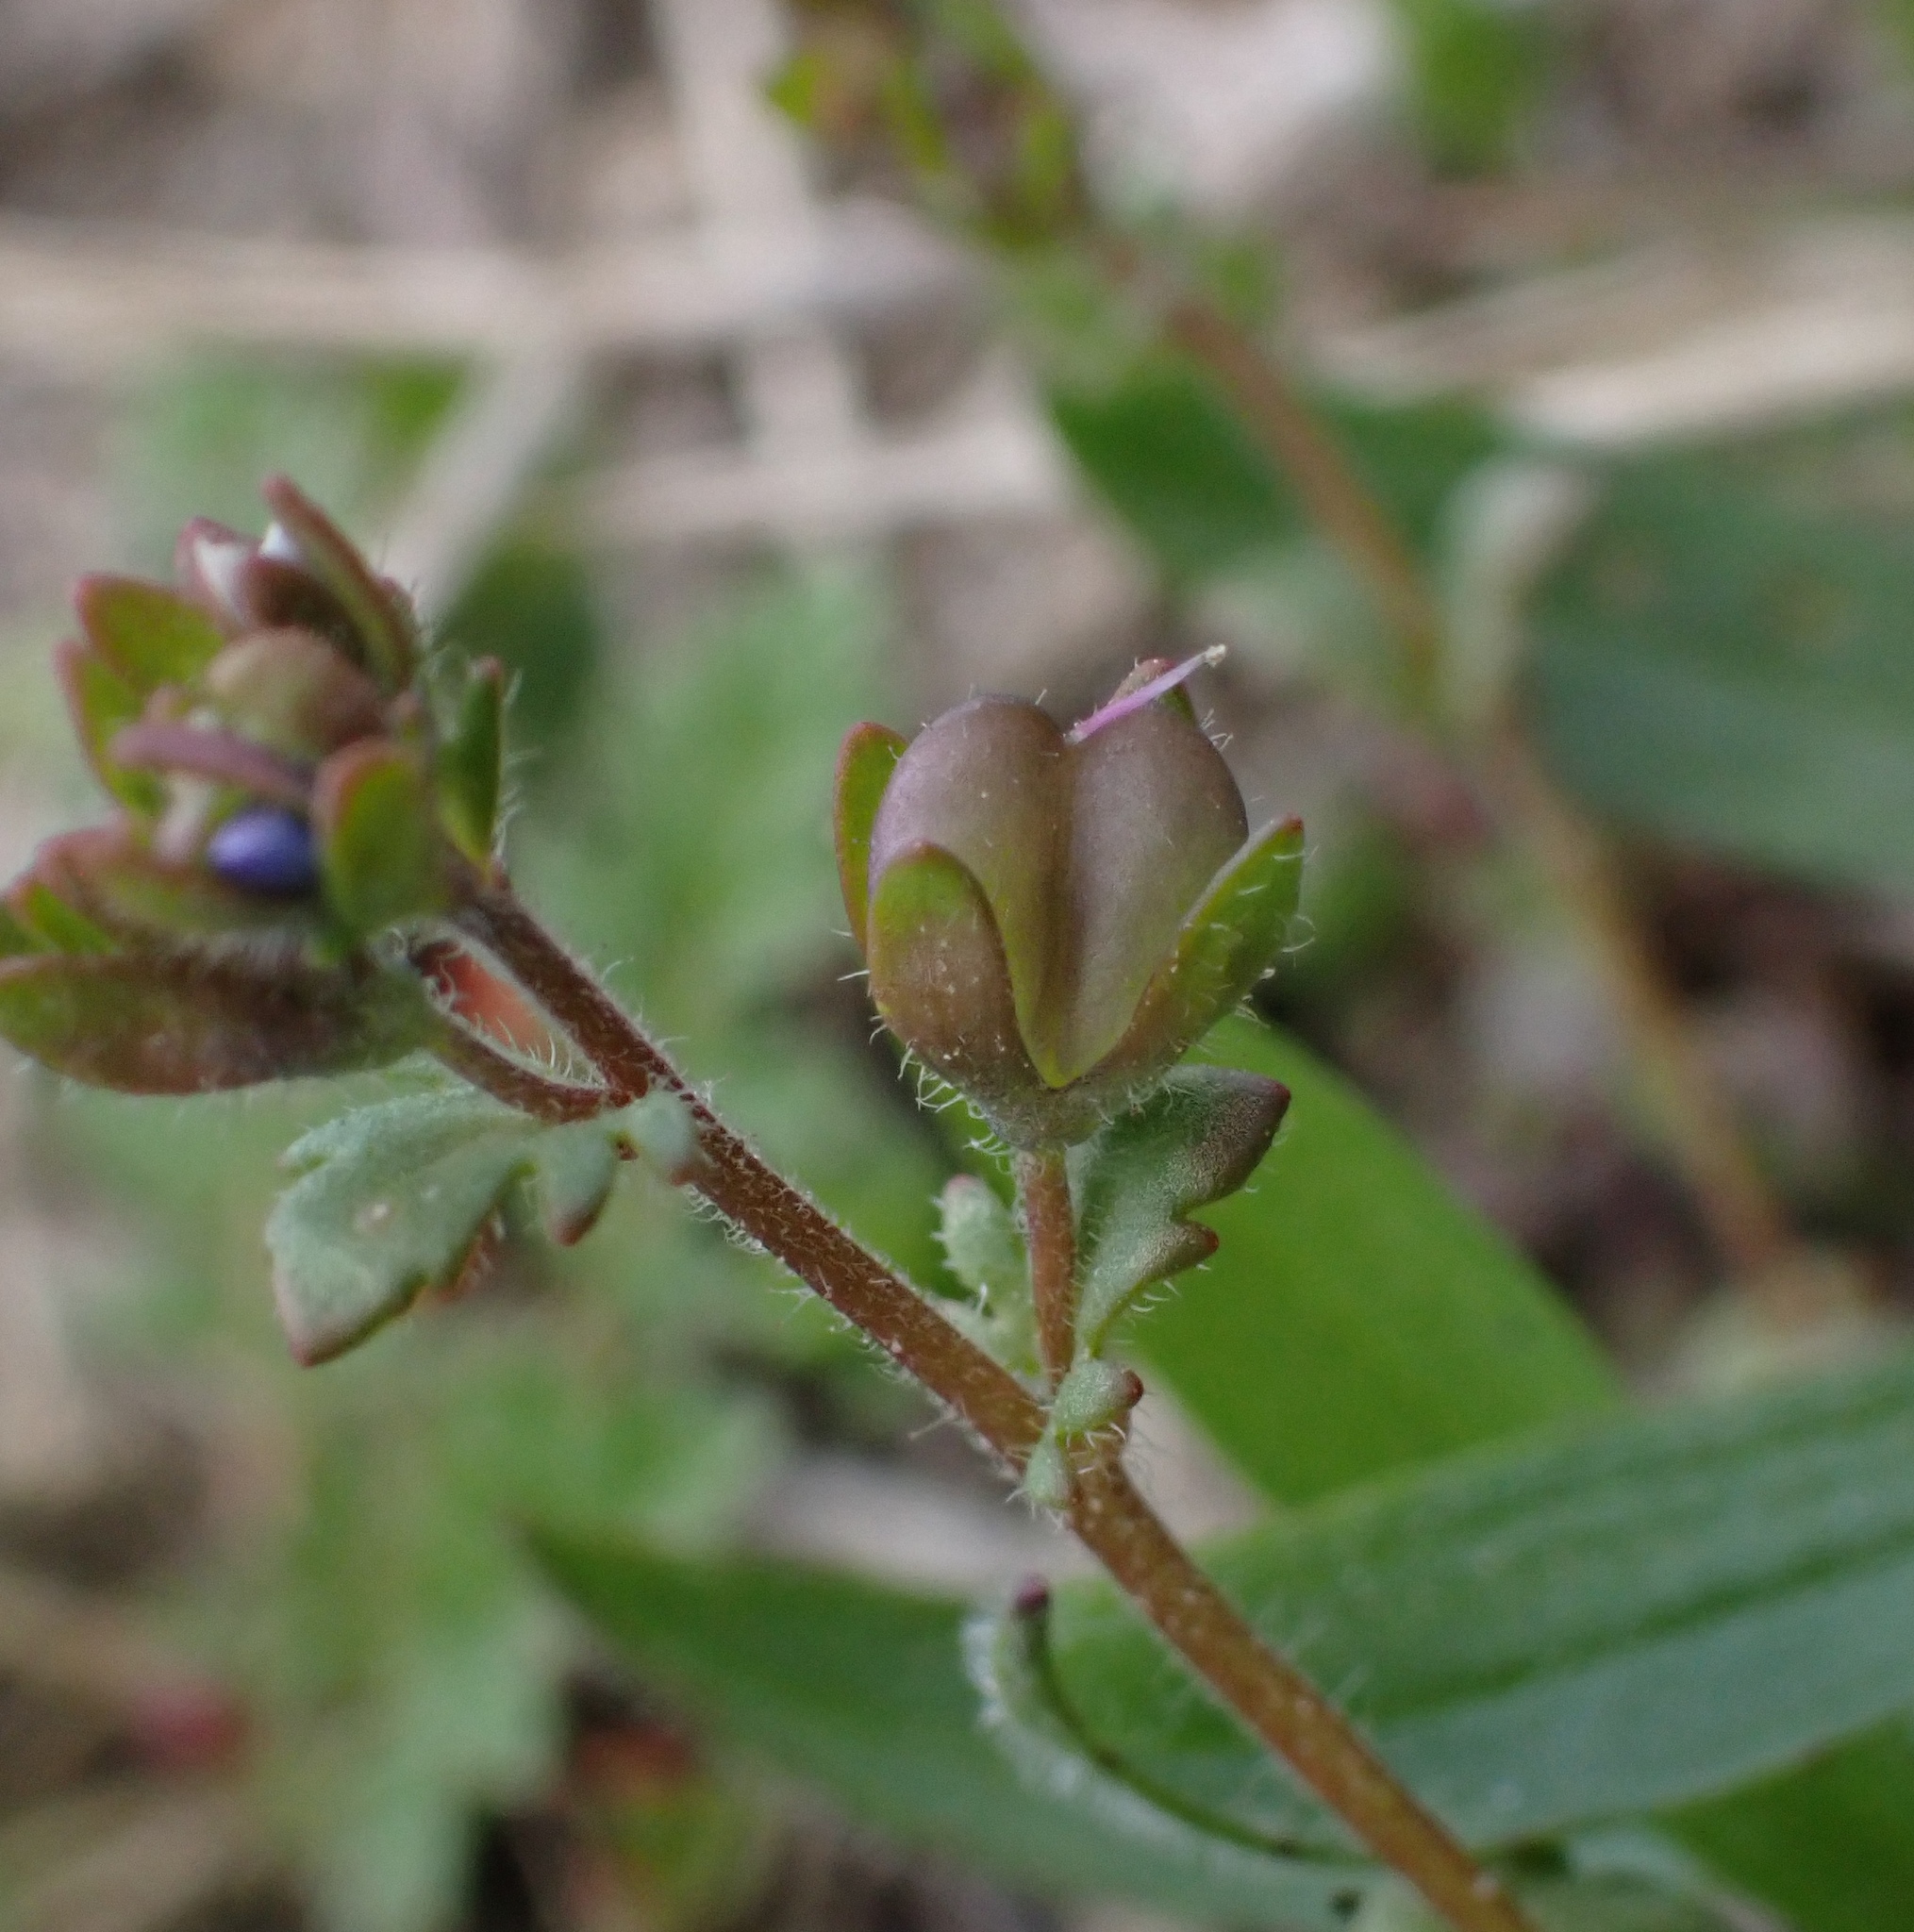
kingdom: Plantae
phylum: Tracheophyta
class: Magnoliopsida
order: Lamiales
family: Plantaginaceae
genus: Veronica
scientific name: Veronica praecox
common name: Breckland speedwell
